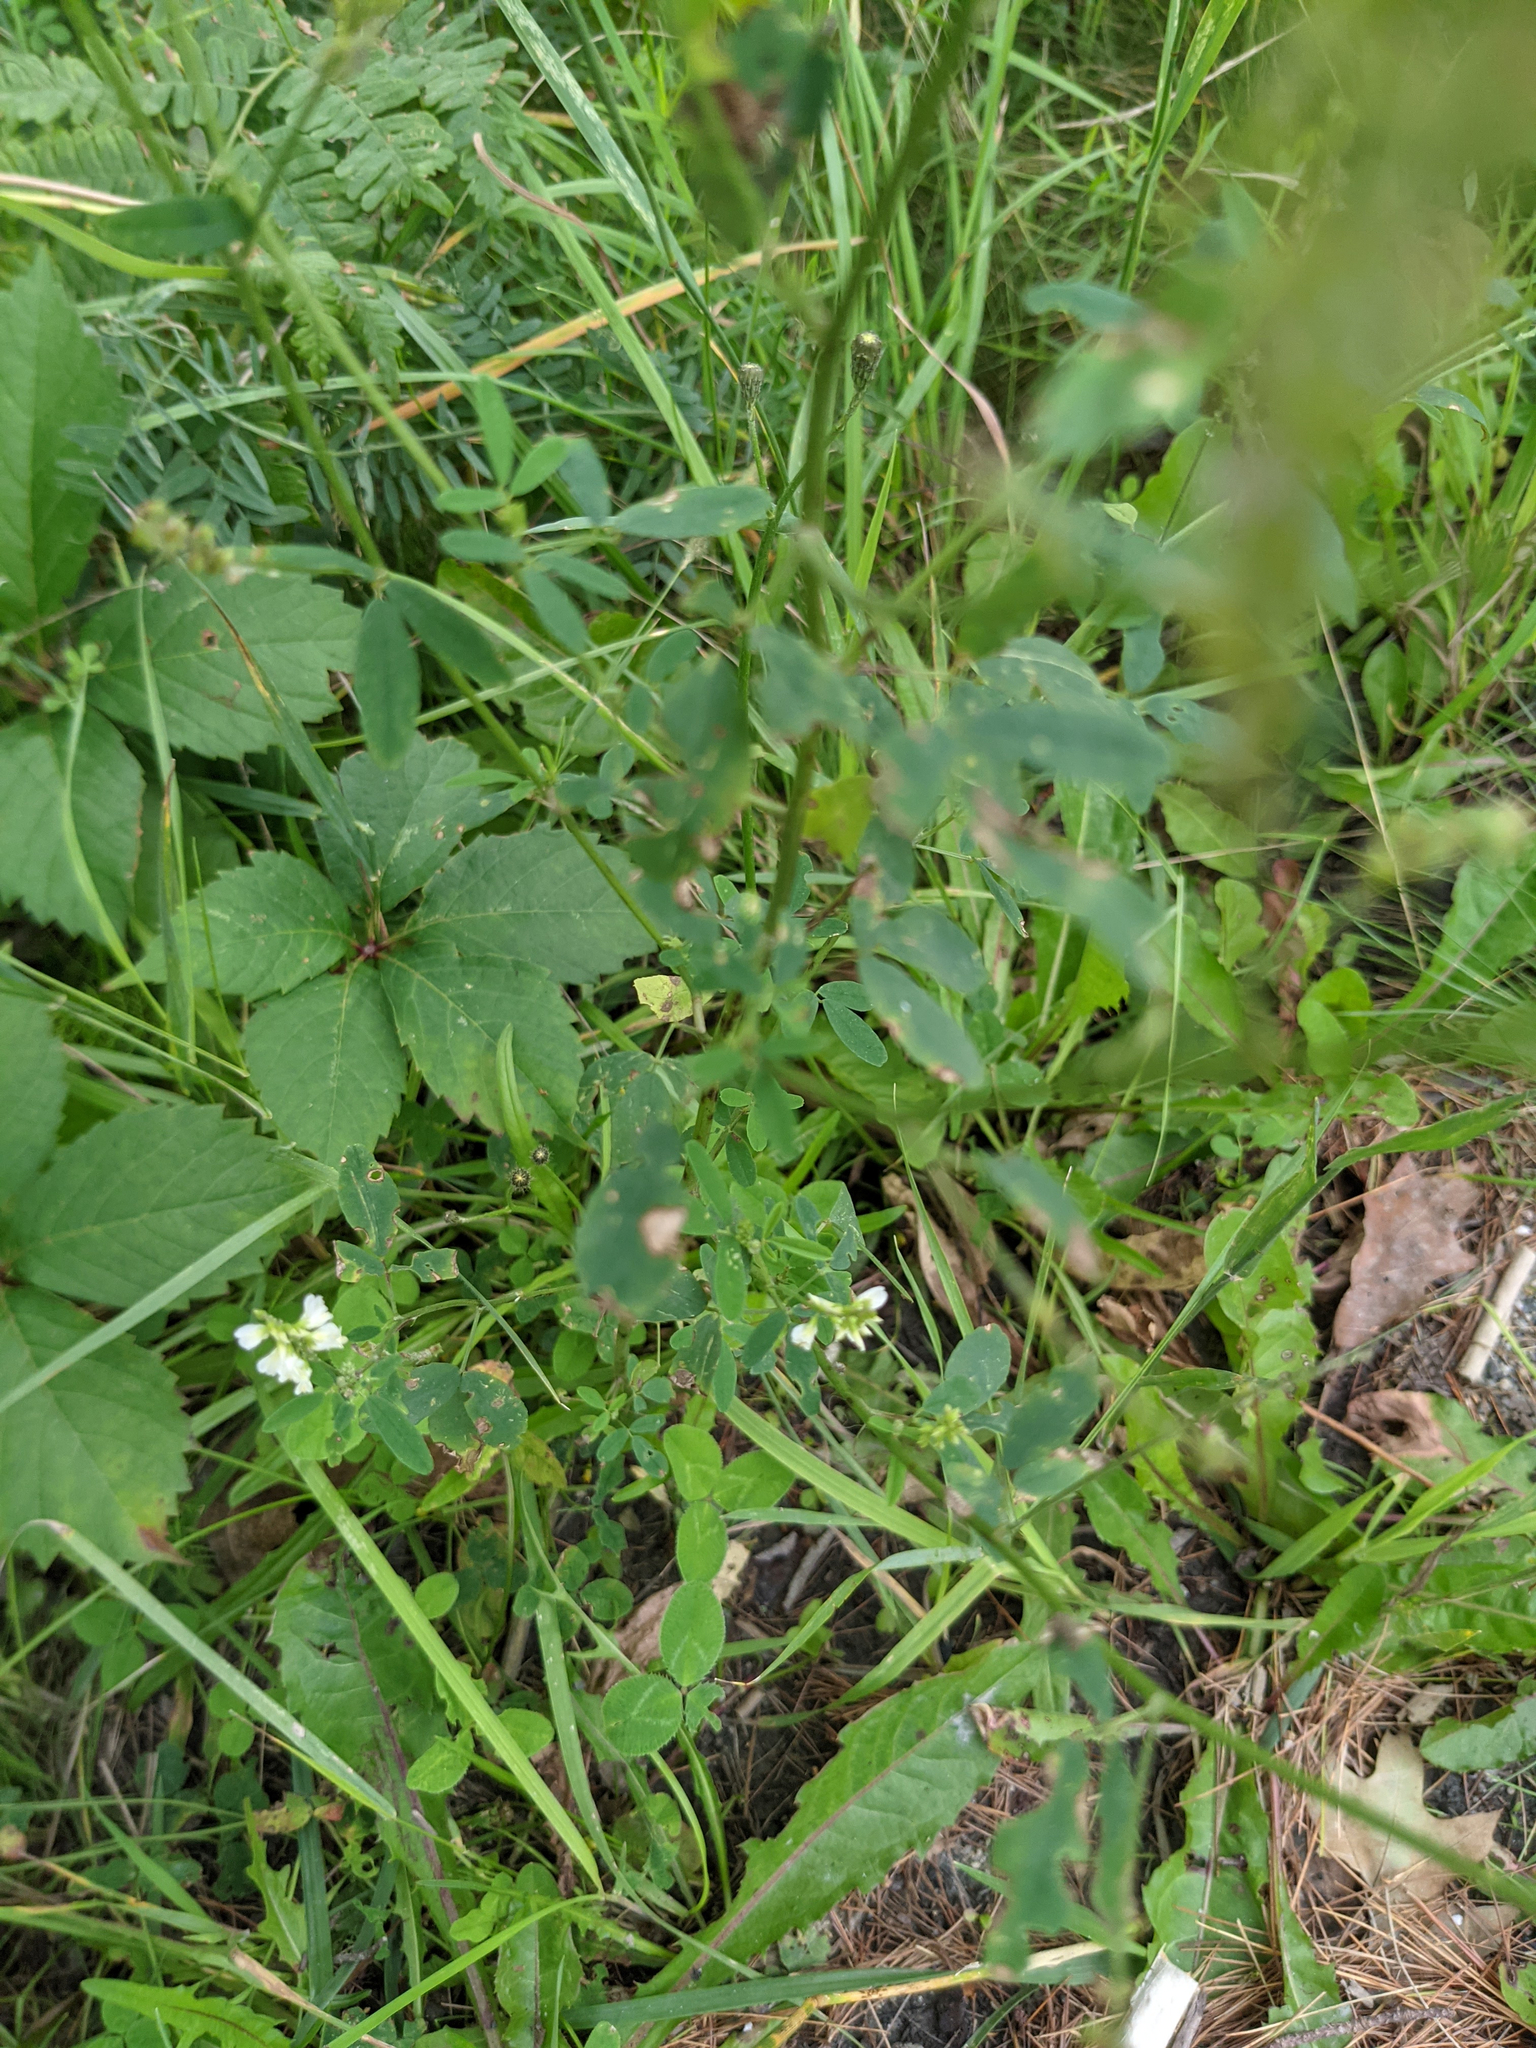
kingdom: Plantae
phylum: Tracheophyta
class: Magnoliopsida
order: Fabales
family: Fabaceae
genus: Melilotus
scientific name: Melilotus albus
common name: White melilot
